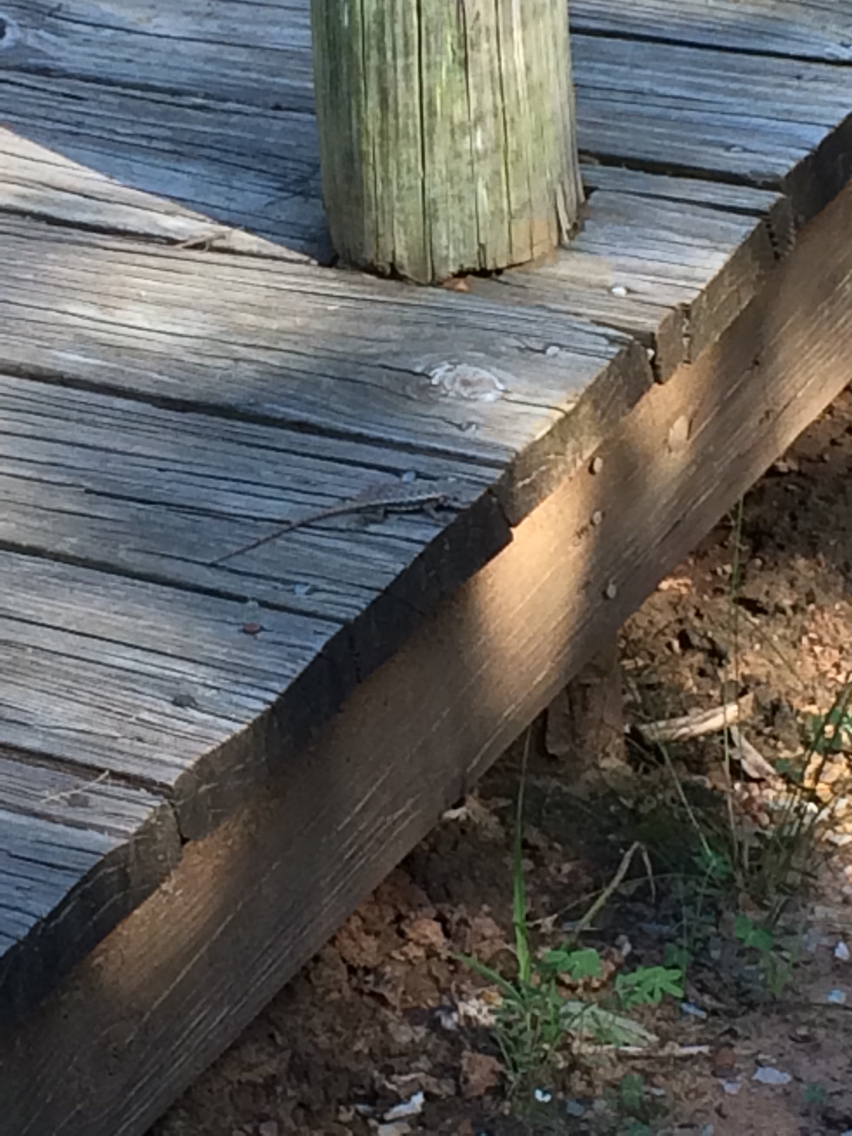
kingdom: Animalia
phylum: Chordata
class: Squamata
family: Phrynosomatidae
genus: Sceloporus
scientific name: Sceloporus consobrinus
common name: Southern prairie lizard
